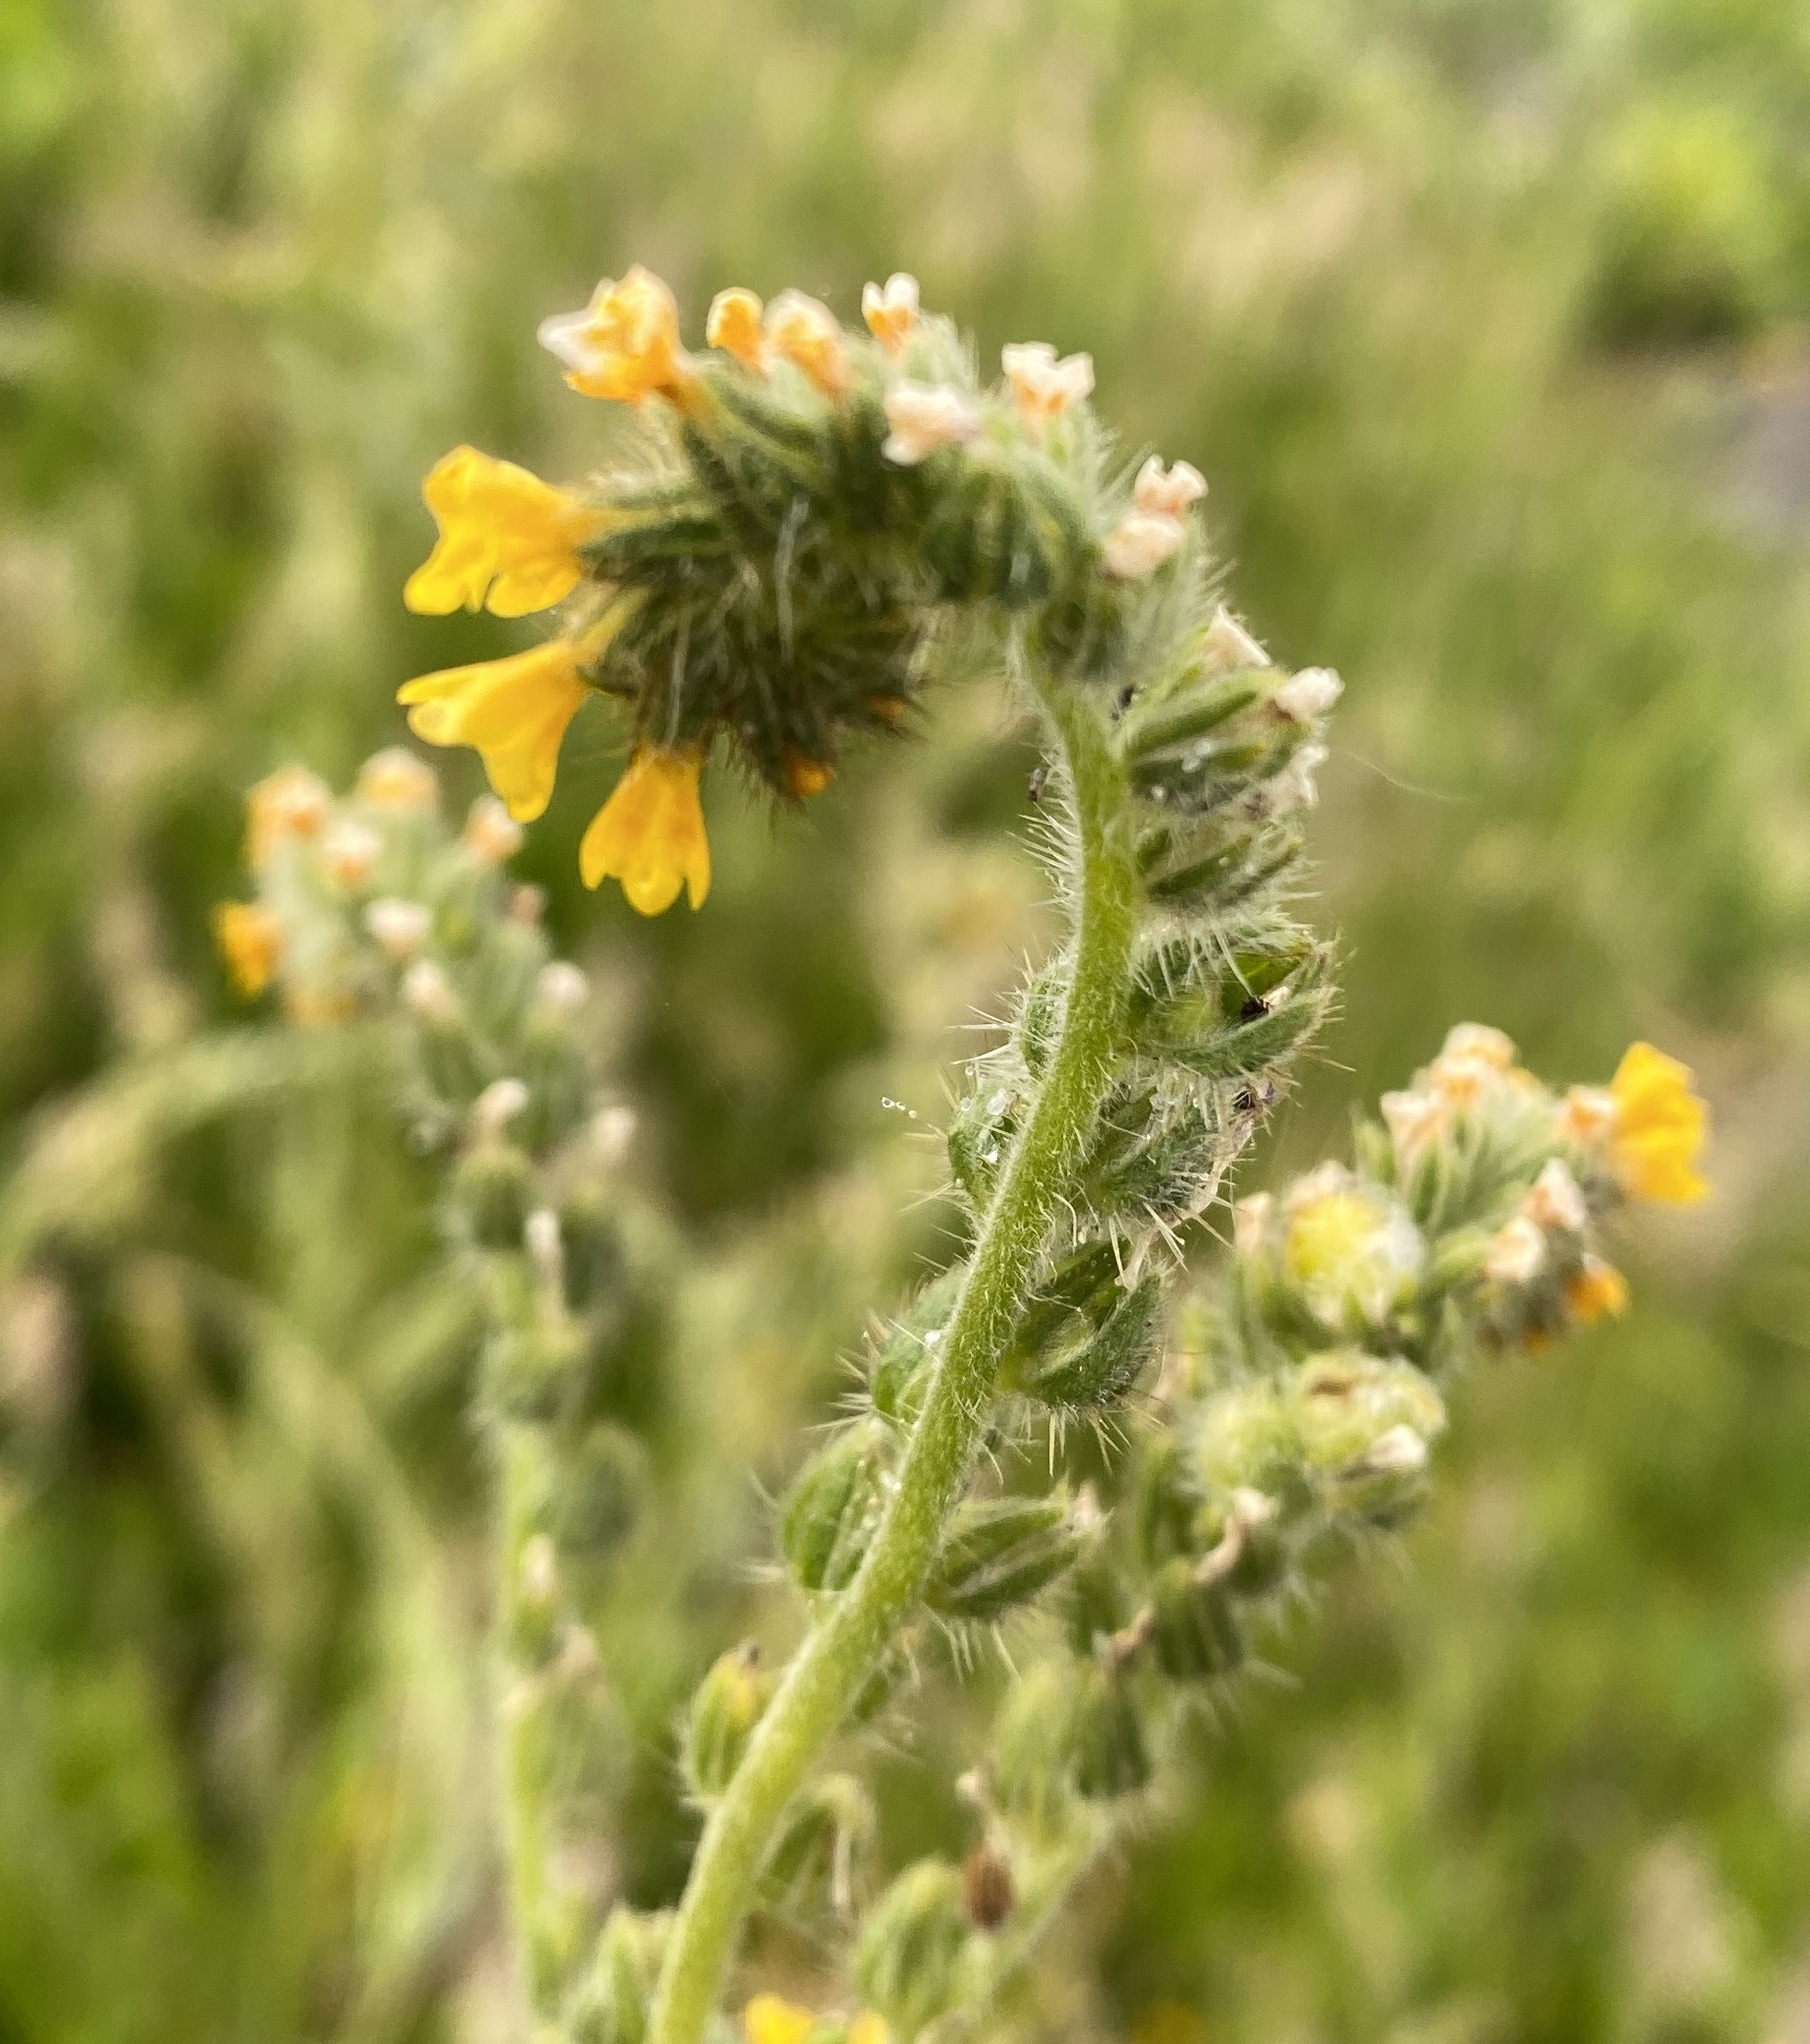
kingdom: Plantae
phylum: Tracheophyta
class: Magnoliopsida
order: Boraginales
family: Boraginaceae
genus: Amsinckia
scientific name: Amsinckia menziesii
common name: Menzies' fiddleneck
